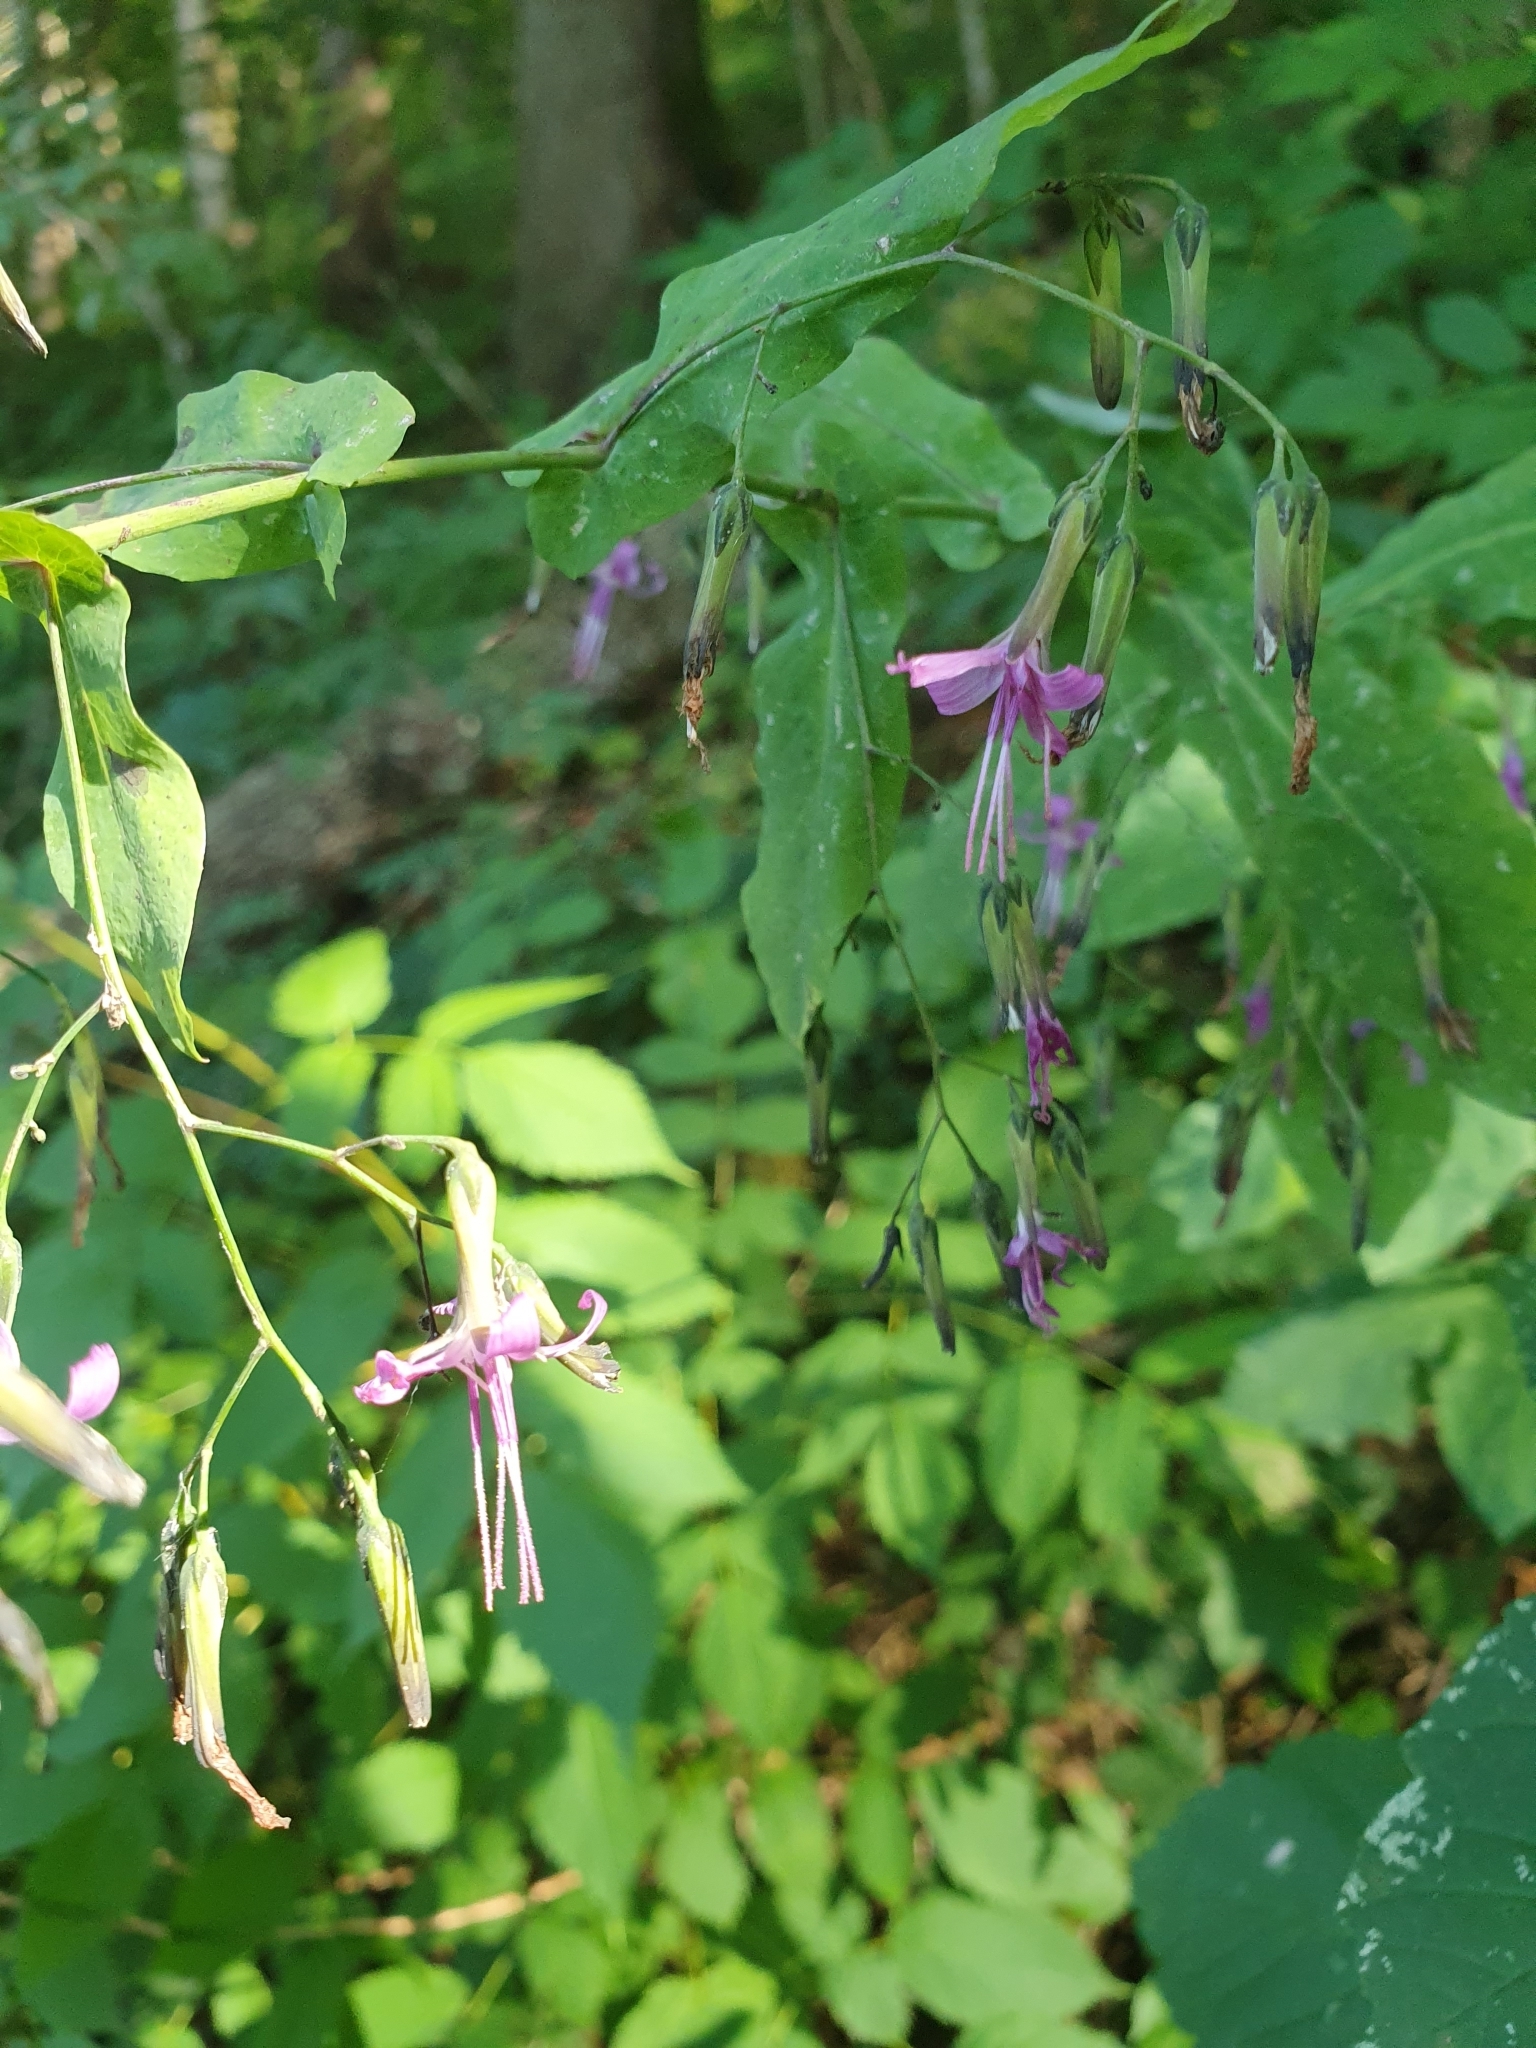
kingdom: Plantae
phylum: Tracheophyta
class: Magnoliopsida
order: Asterales
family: Asteraceae
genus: Prenanthes
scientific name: Prenanthes purpurea
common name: Purple lettuce
